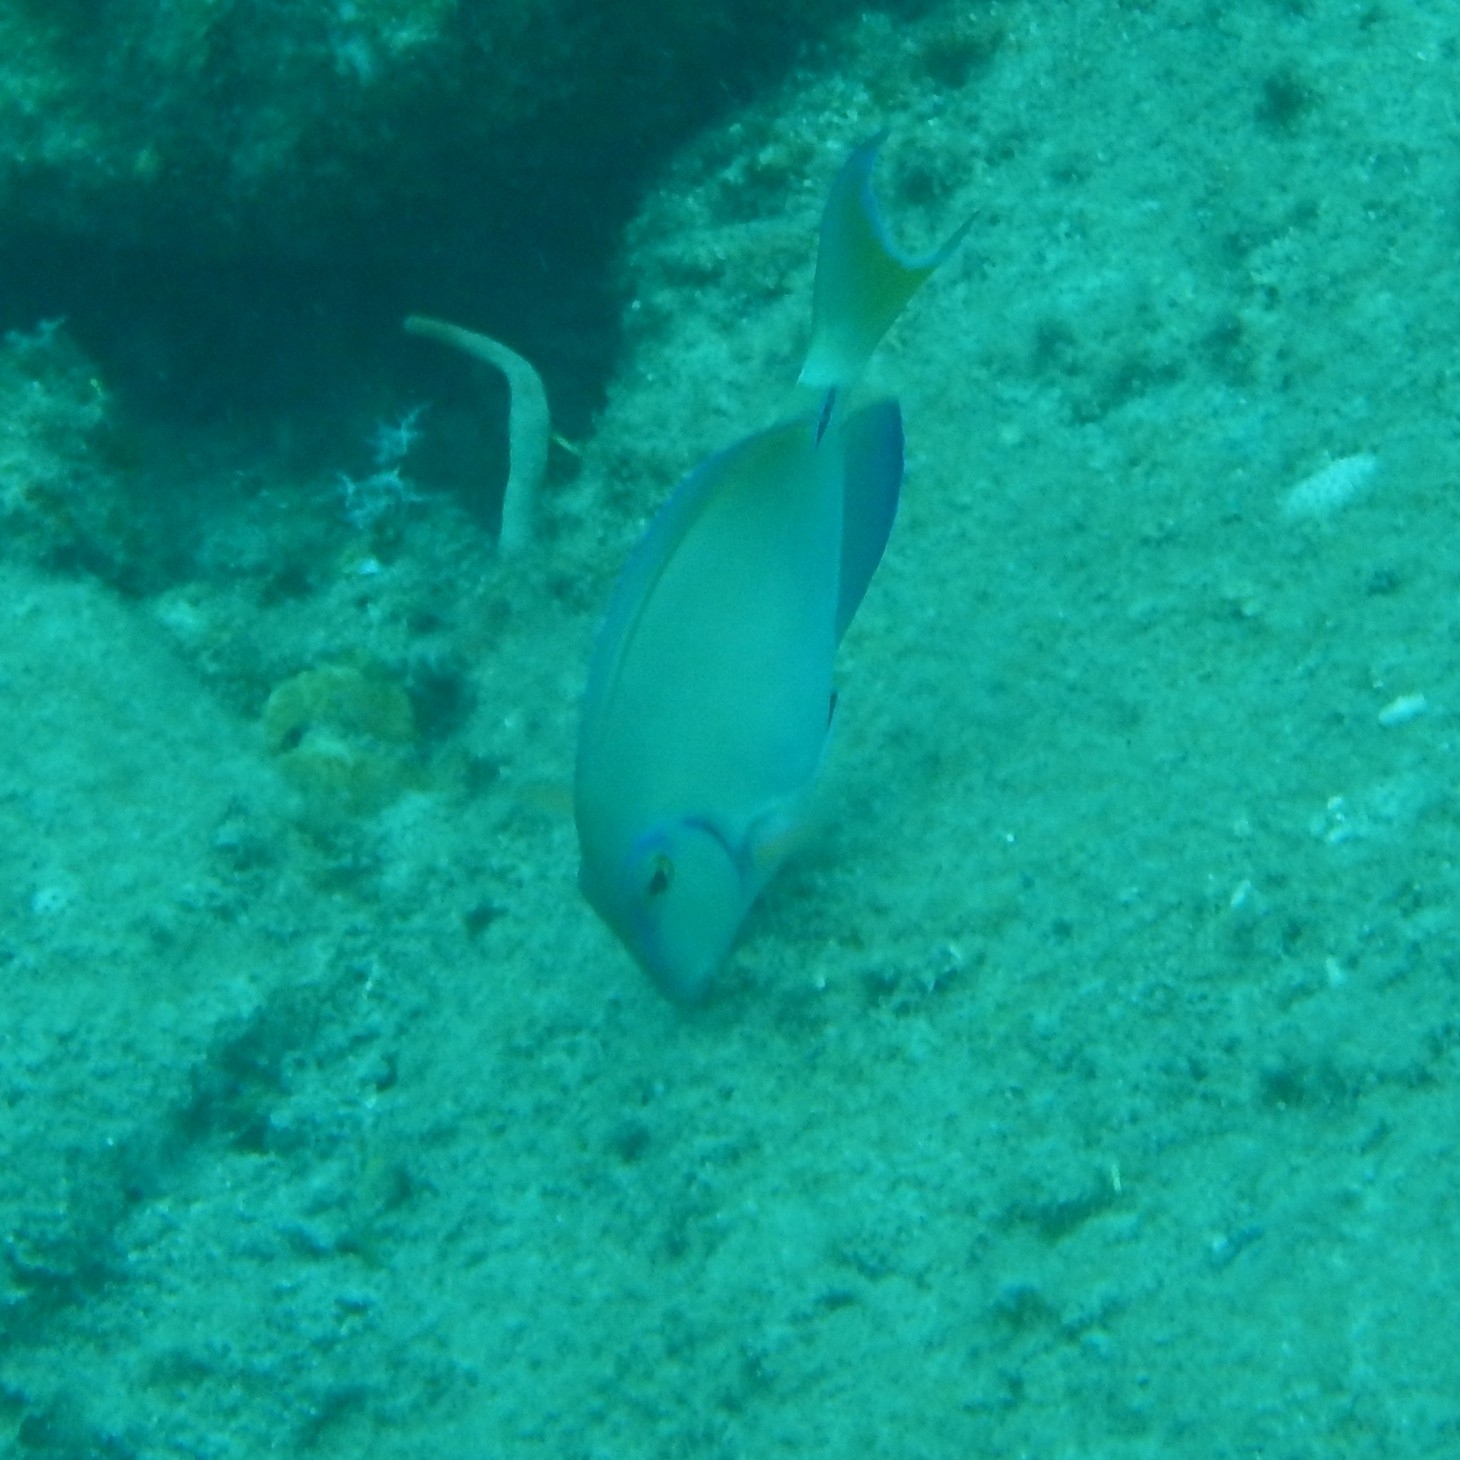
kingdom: Animalia
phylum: Chordata
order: Perciformes
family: Acanthuridae
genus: Acanthurus
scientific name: Acanthurus bahianus
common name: Ocean surgeon
